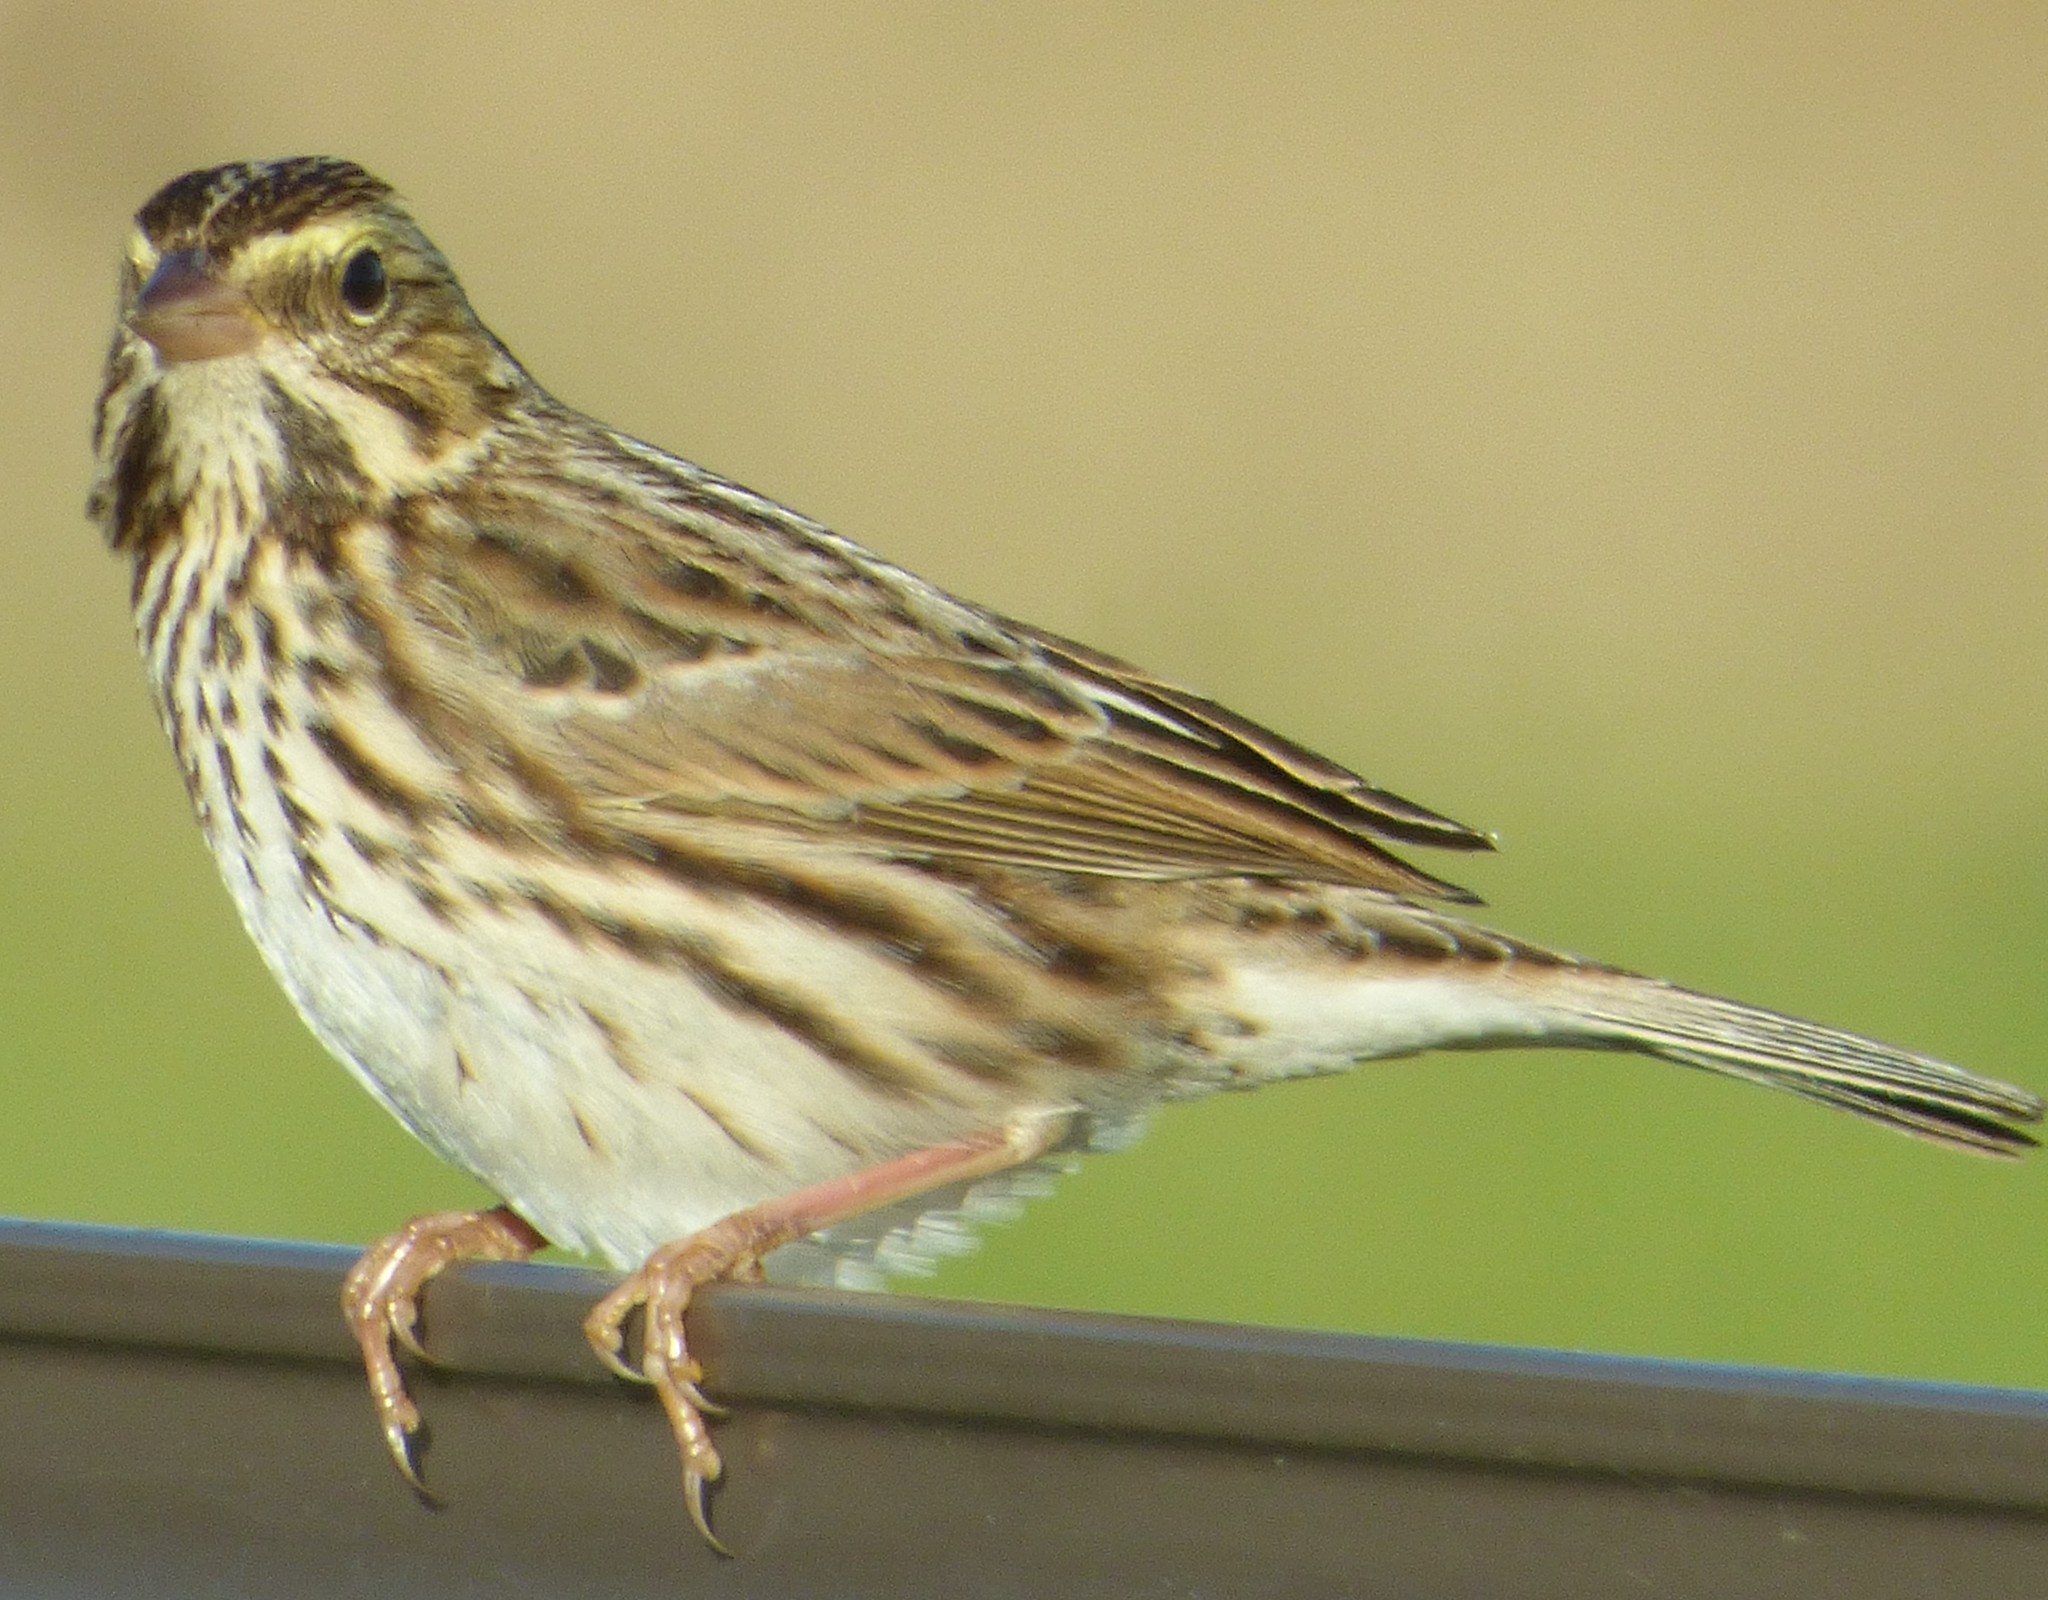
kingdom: Animalia
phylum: Chordata
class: Aves
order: Passeriformes
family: Passerellidae
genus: Passerculus
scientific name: Passerculus sandwichensis
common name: Savannah sparrow
